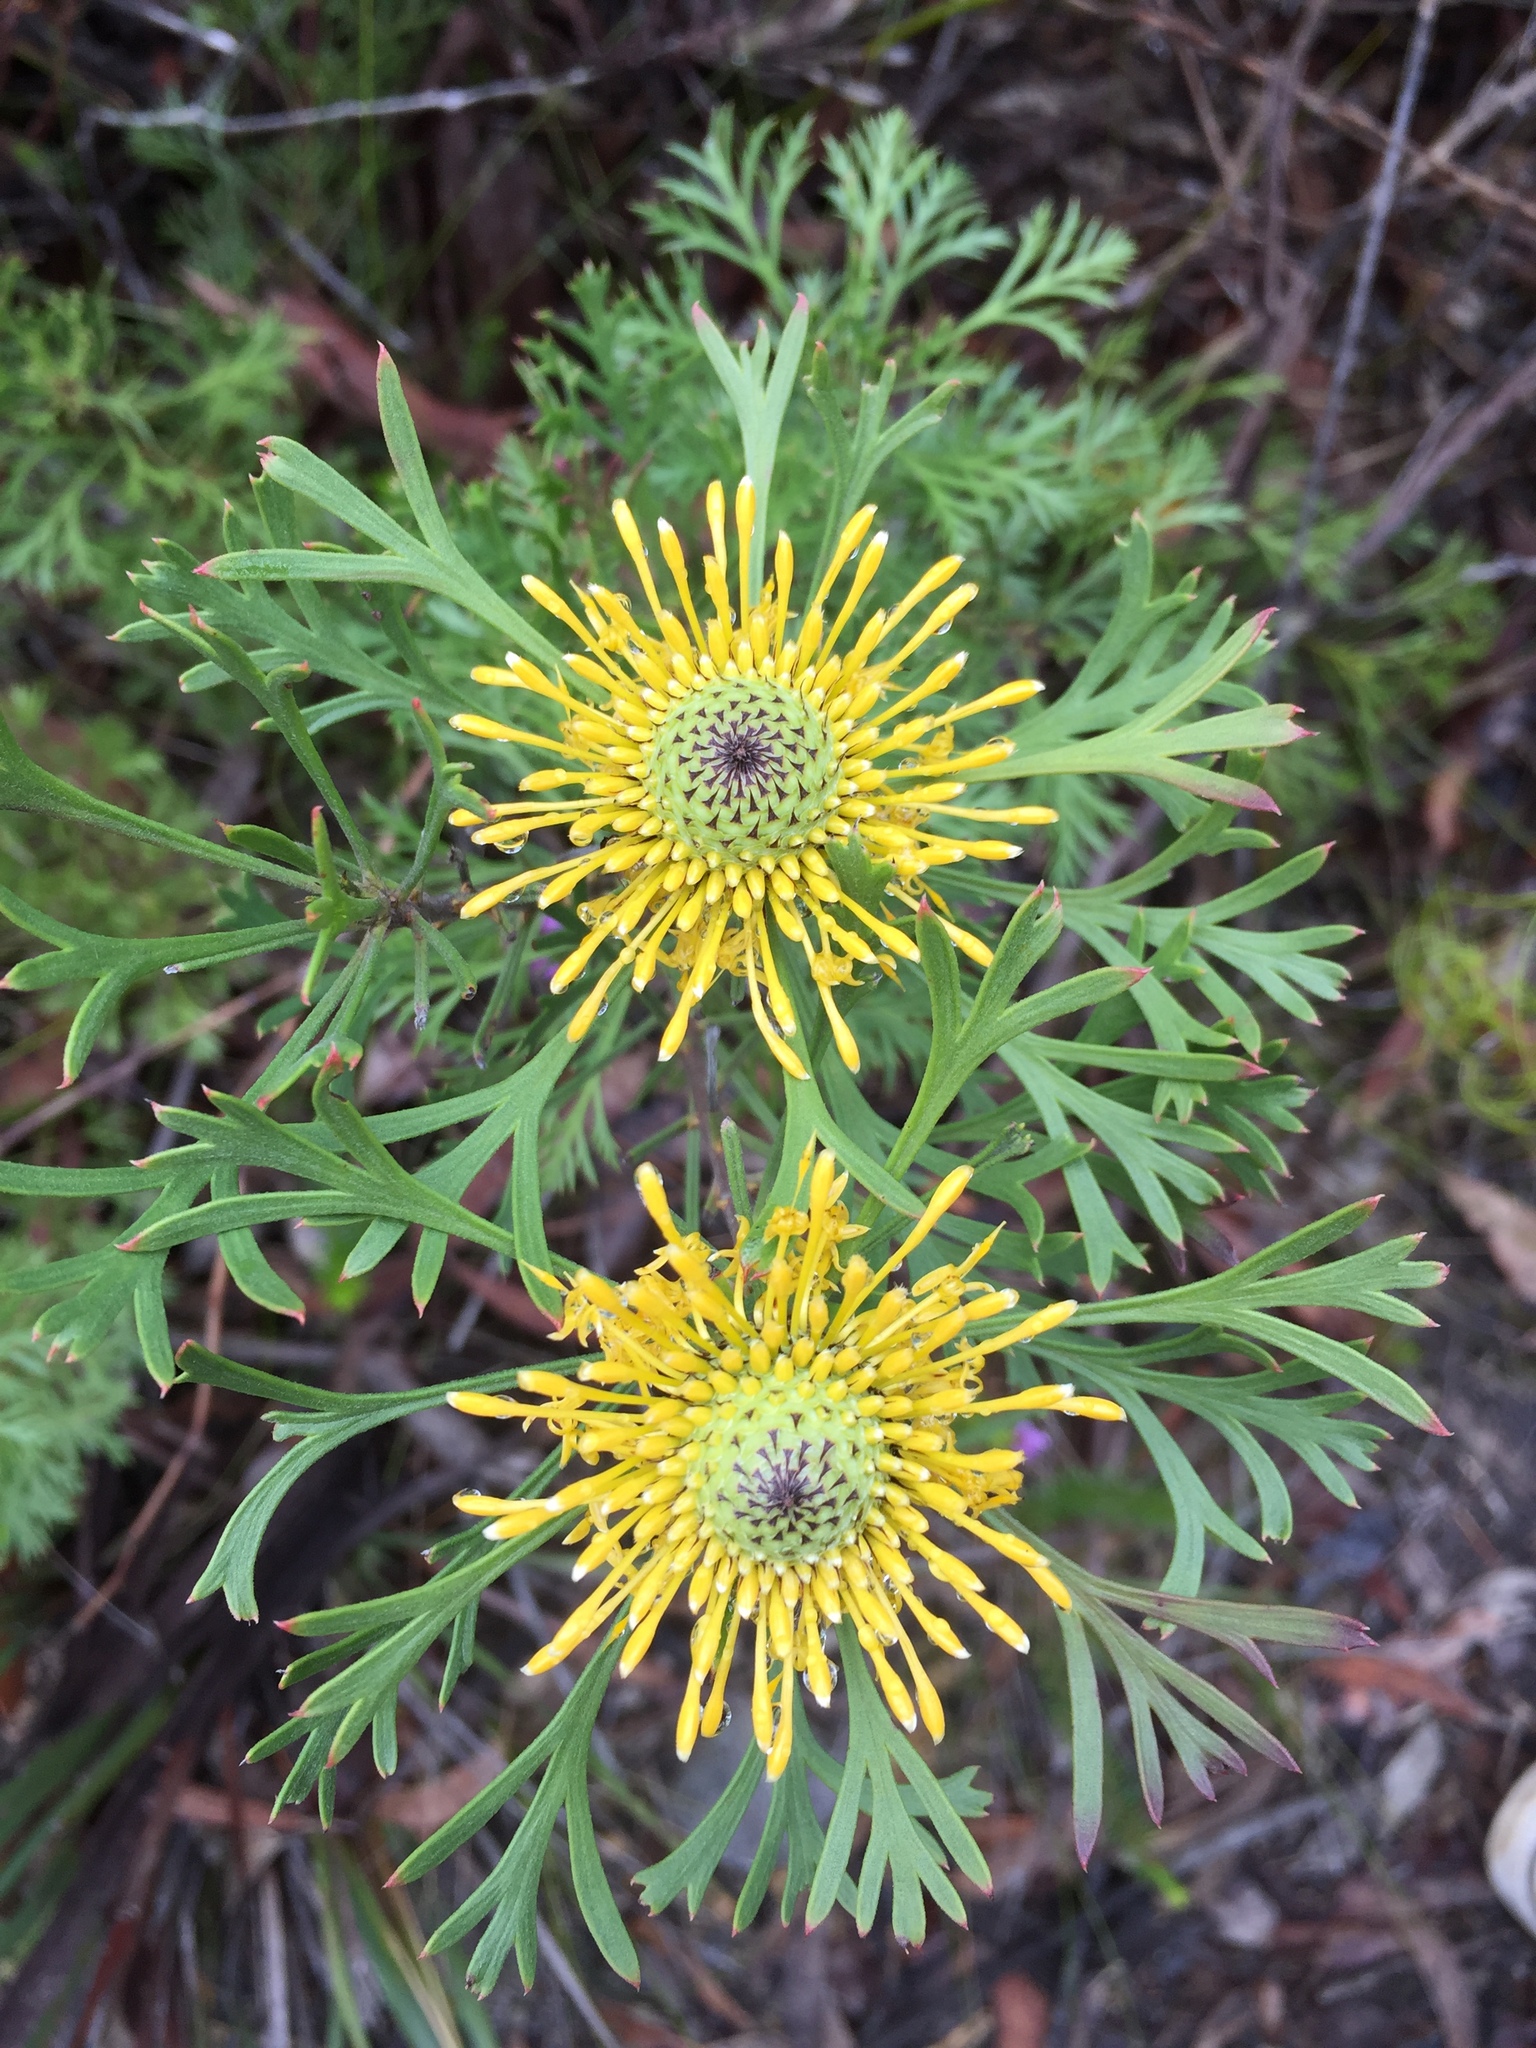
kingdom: Plantae
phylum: Tracheophyta
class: Magnoliopsida
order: Proteales
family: Proteaceae
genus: Isopogon
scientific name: Isopogon anemonifolius
